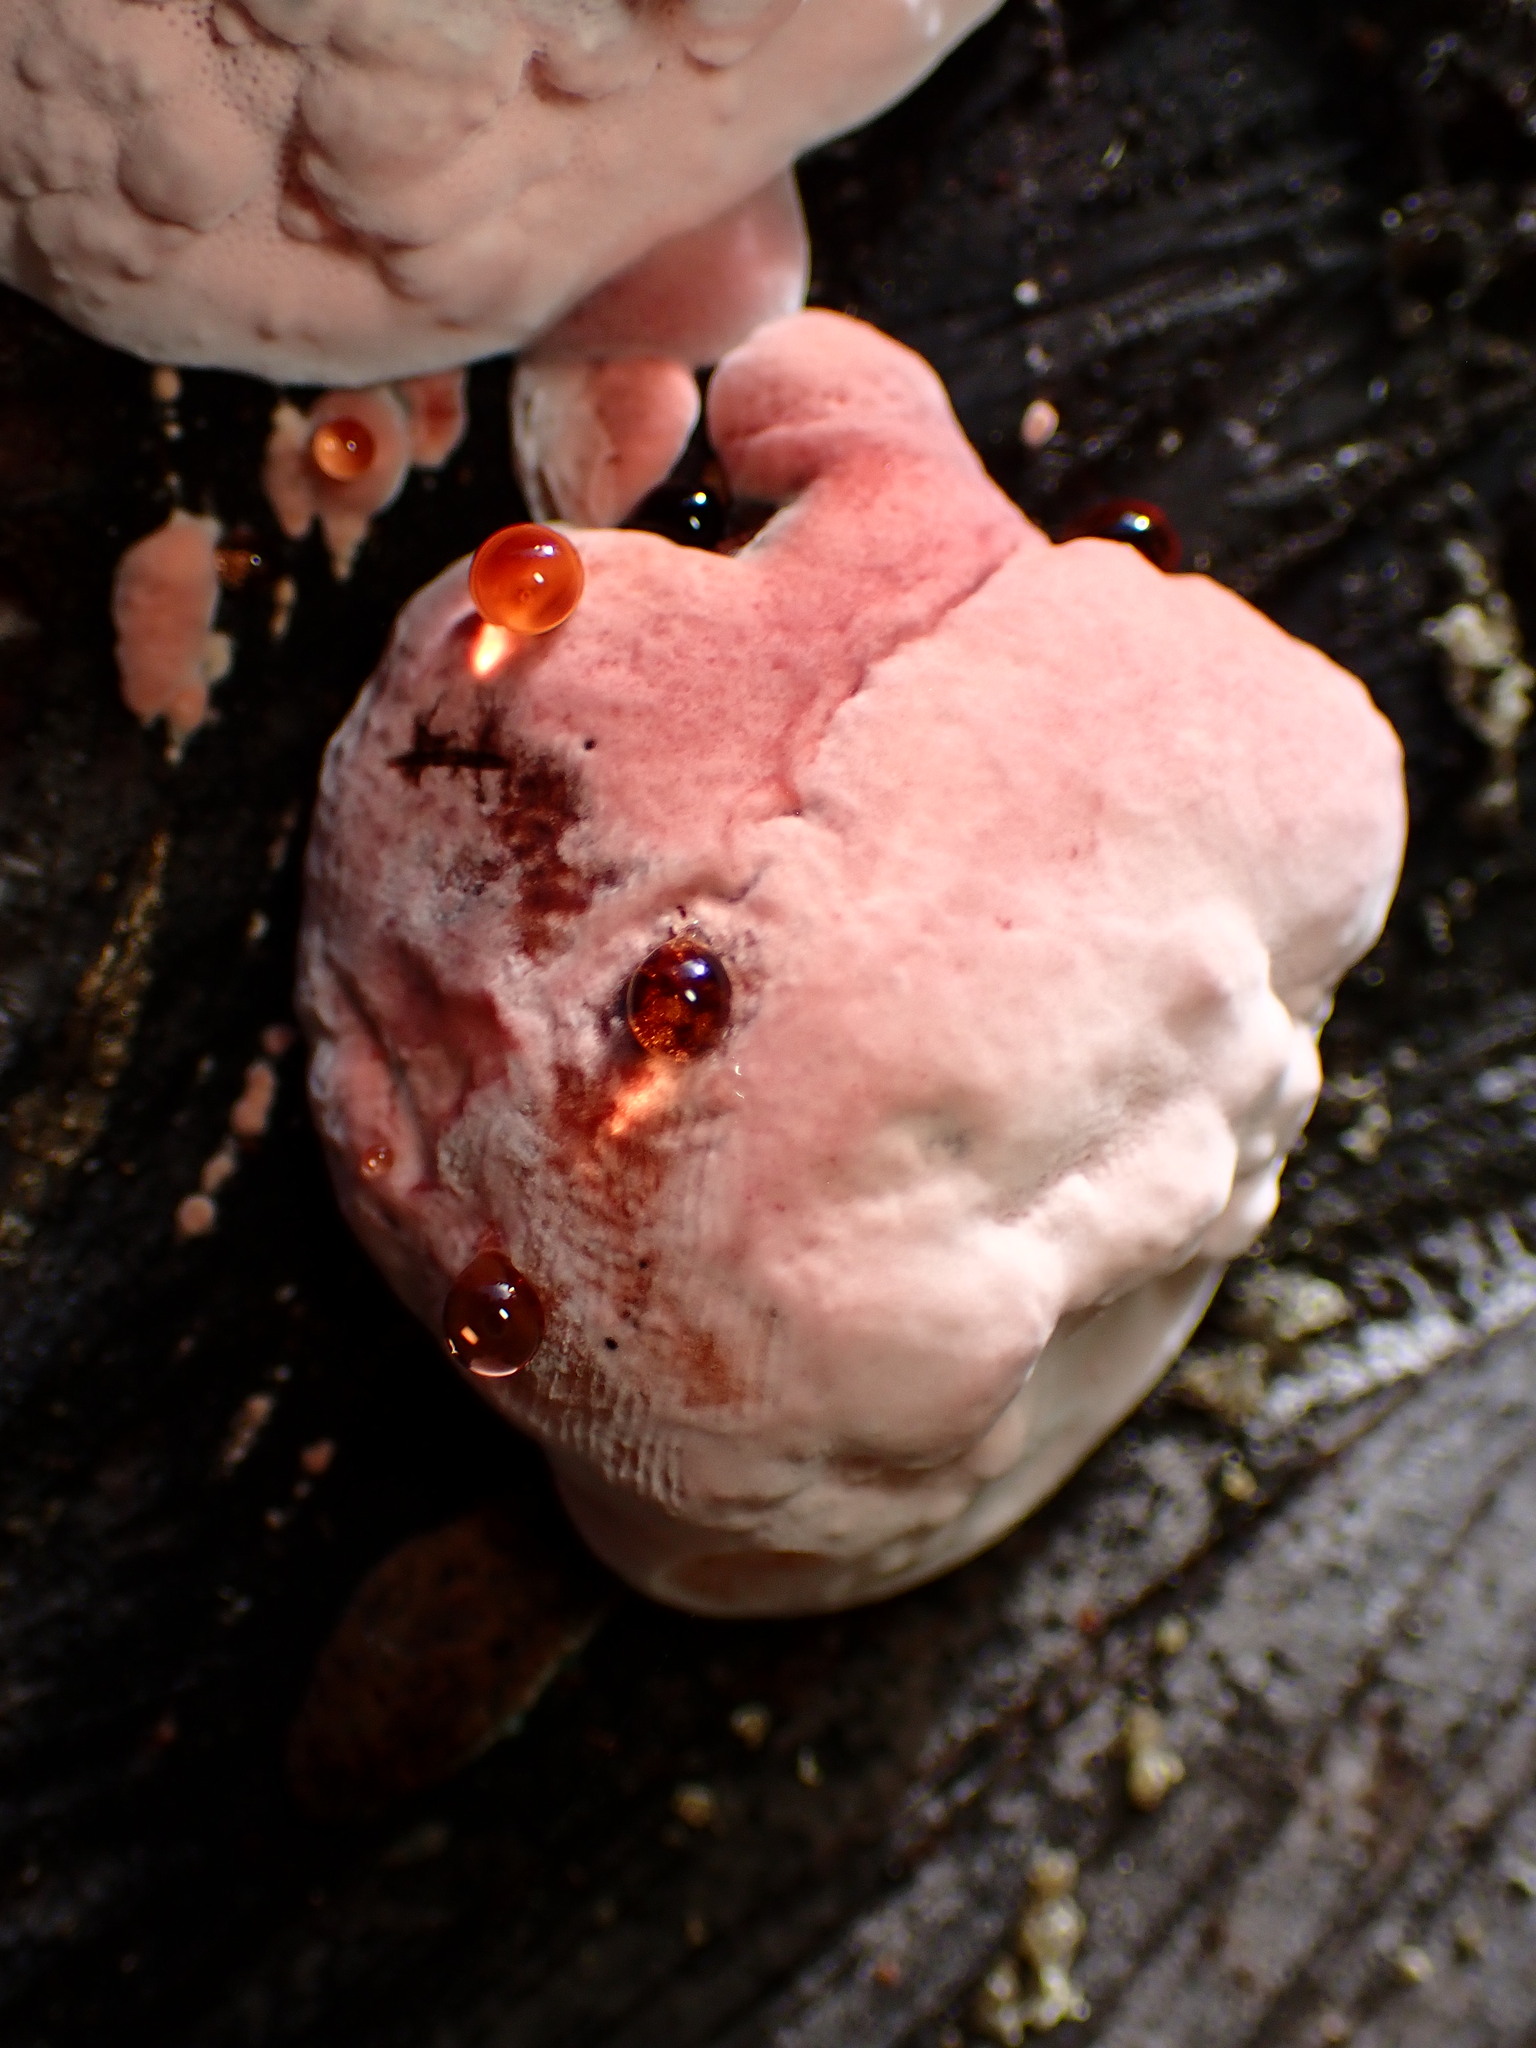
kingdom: Fungi
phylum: Basidiomycota
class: Agaricomycetes
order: Polyporales
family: Fomitopsidaceae
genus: Rhodofomes
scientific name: Rhodofomes cajanderi
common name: Rosy conk
